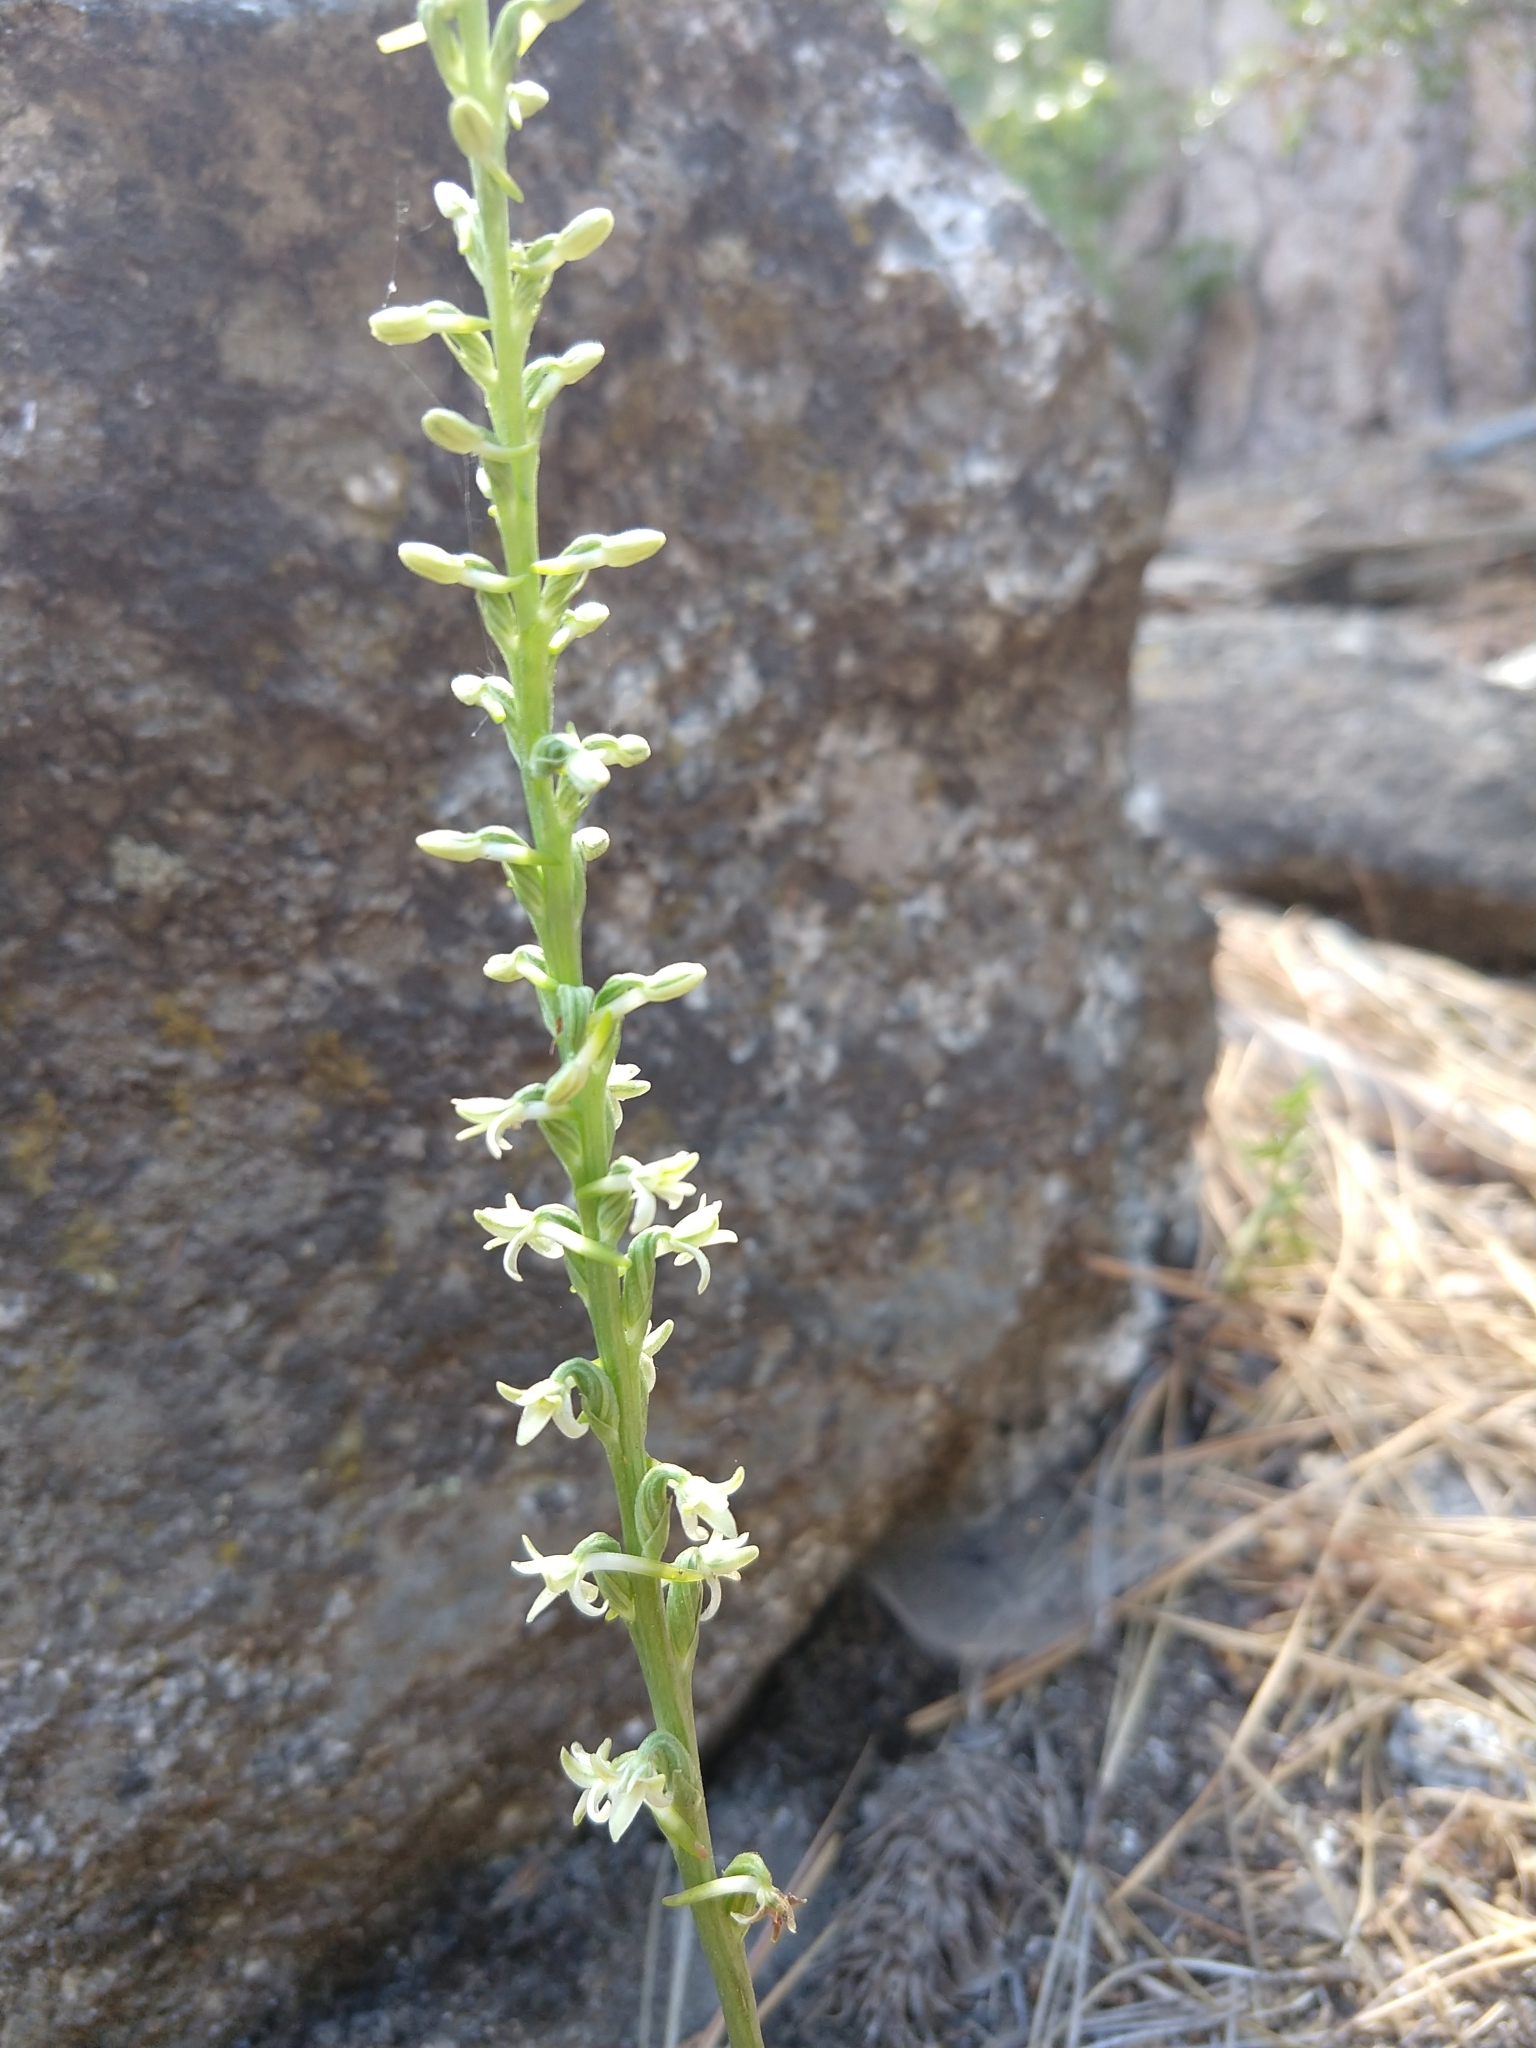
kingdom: Plantae
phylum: Tracheophyta
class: Liliopsida
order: Asparagales
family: Orchidaceae
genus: Platanthera
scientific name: Platanthera transversa
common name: Royal rein orchid
